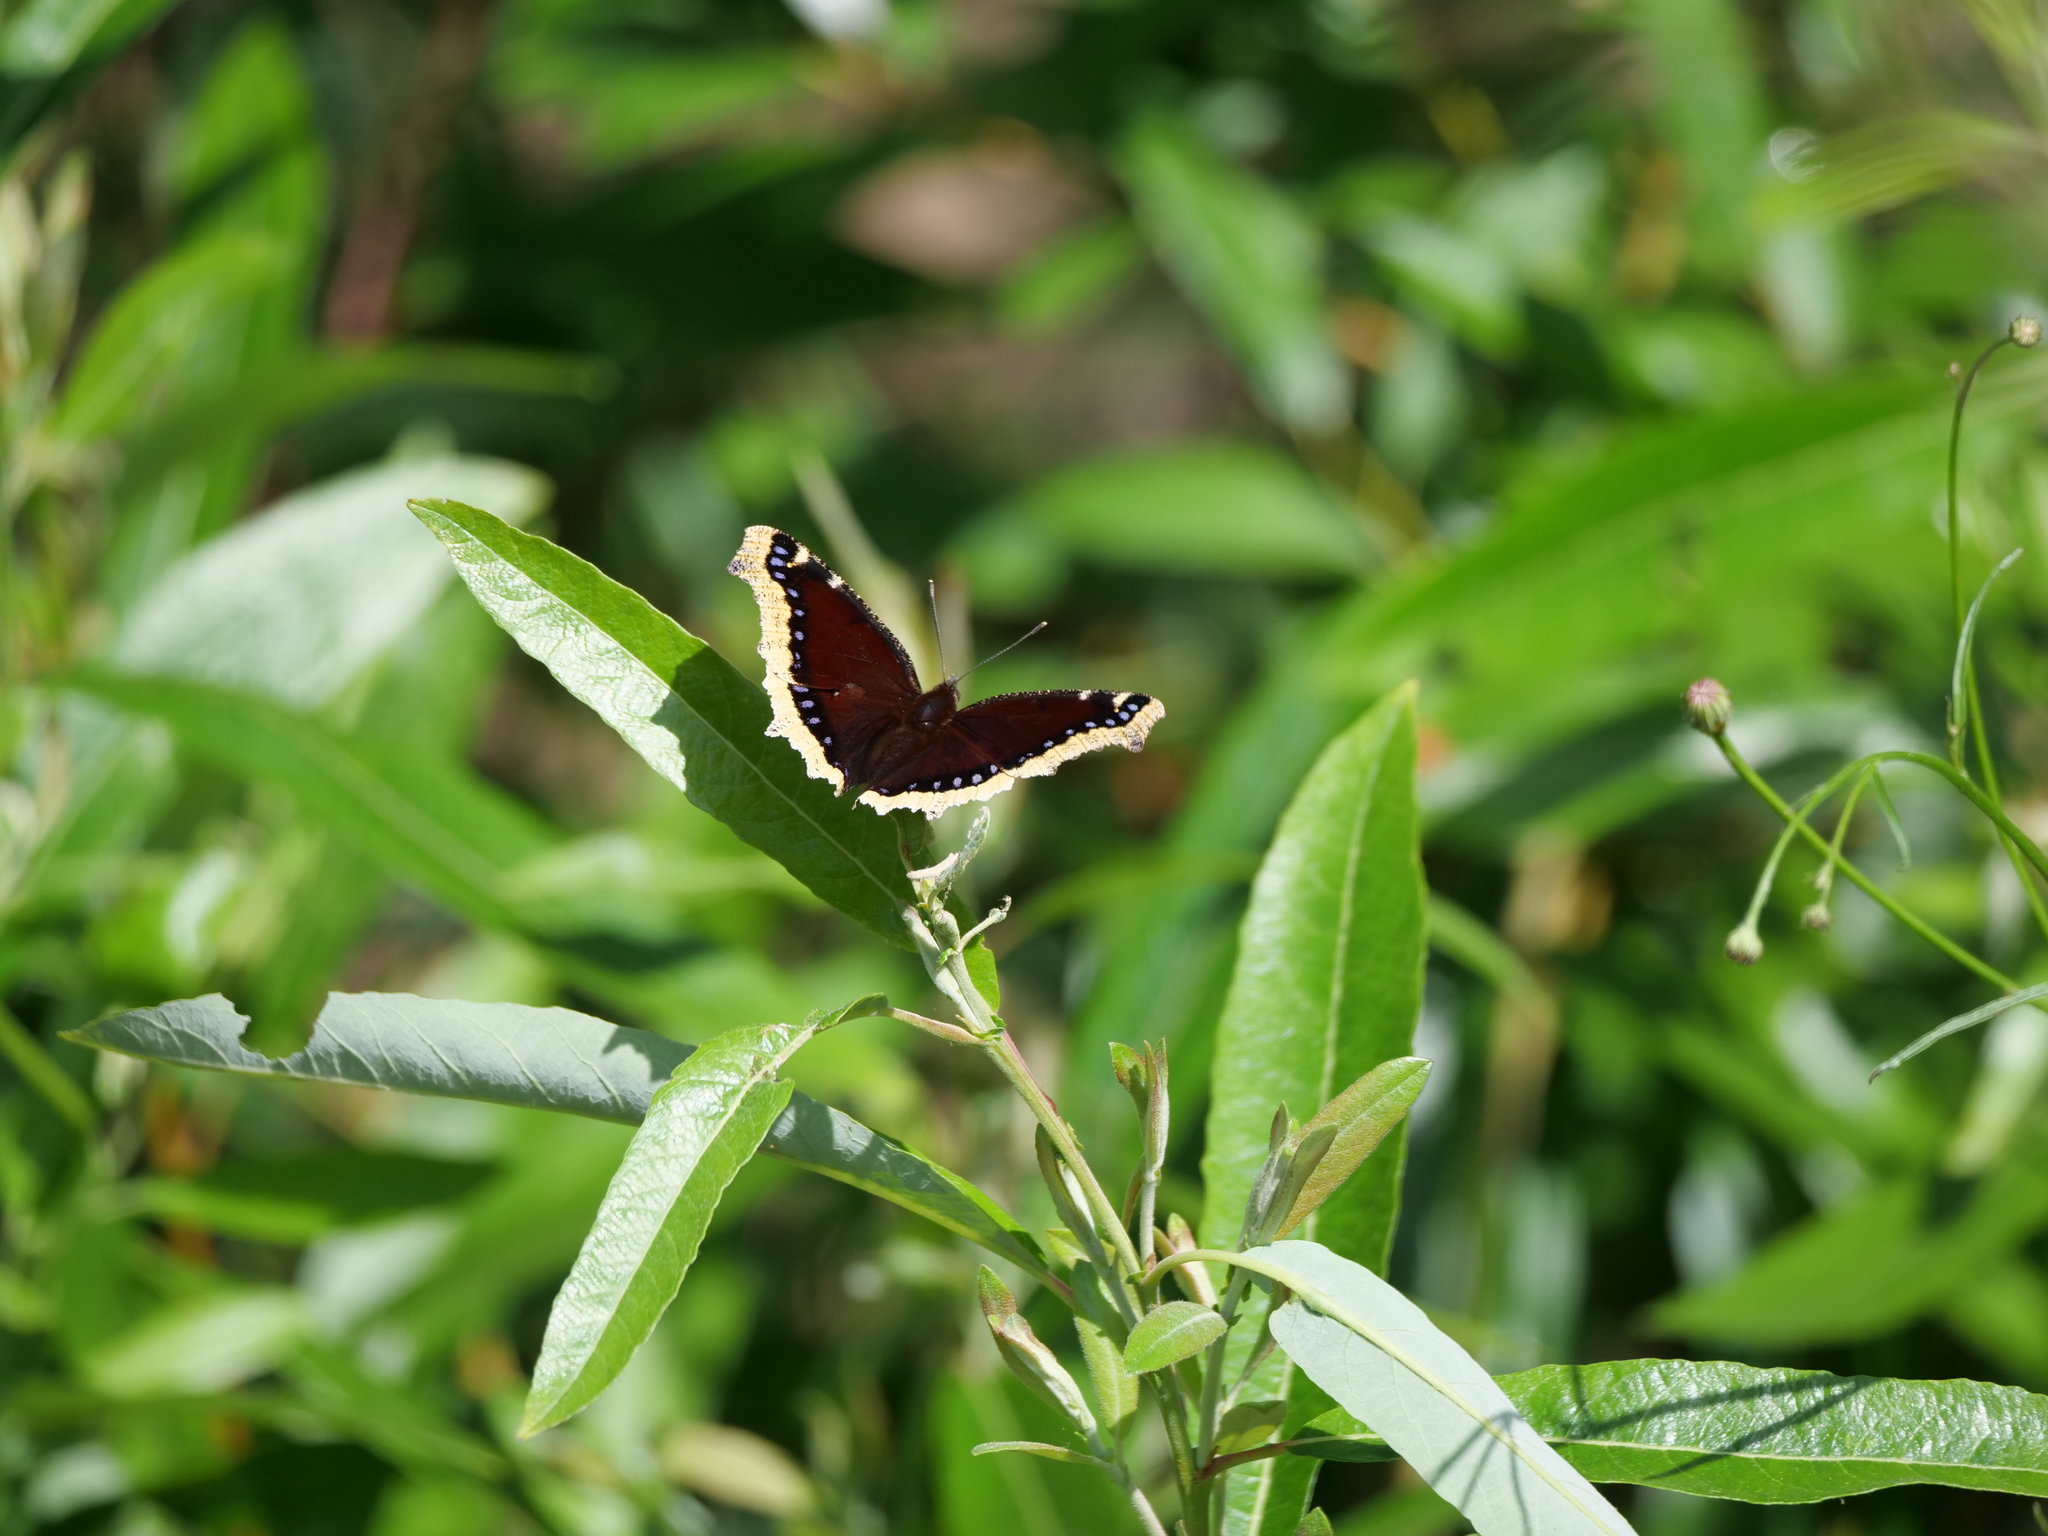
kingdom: Animalia
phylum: Arthropoda
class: Insecta
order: Lepidoptera
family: Nymphalidae
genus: Nymphalis
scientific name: Nymphalis antiopa
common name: Camberwell beauty
